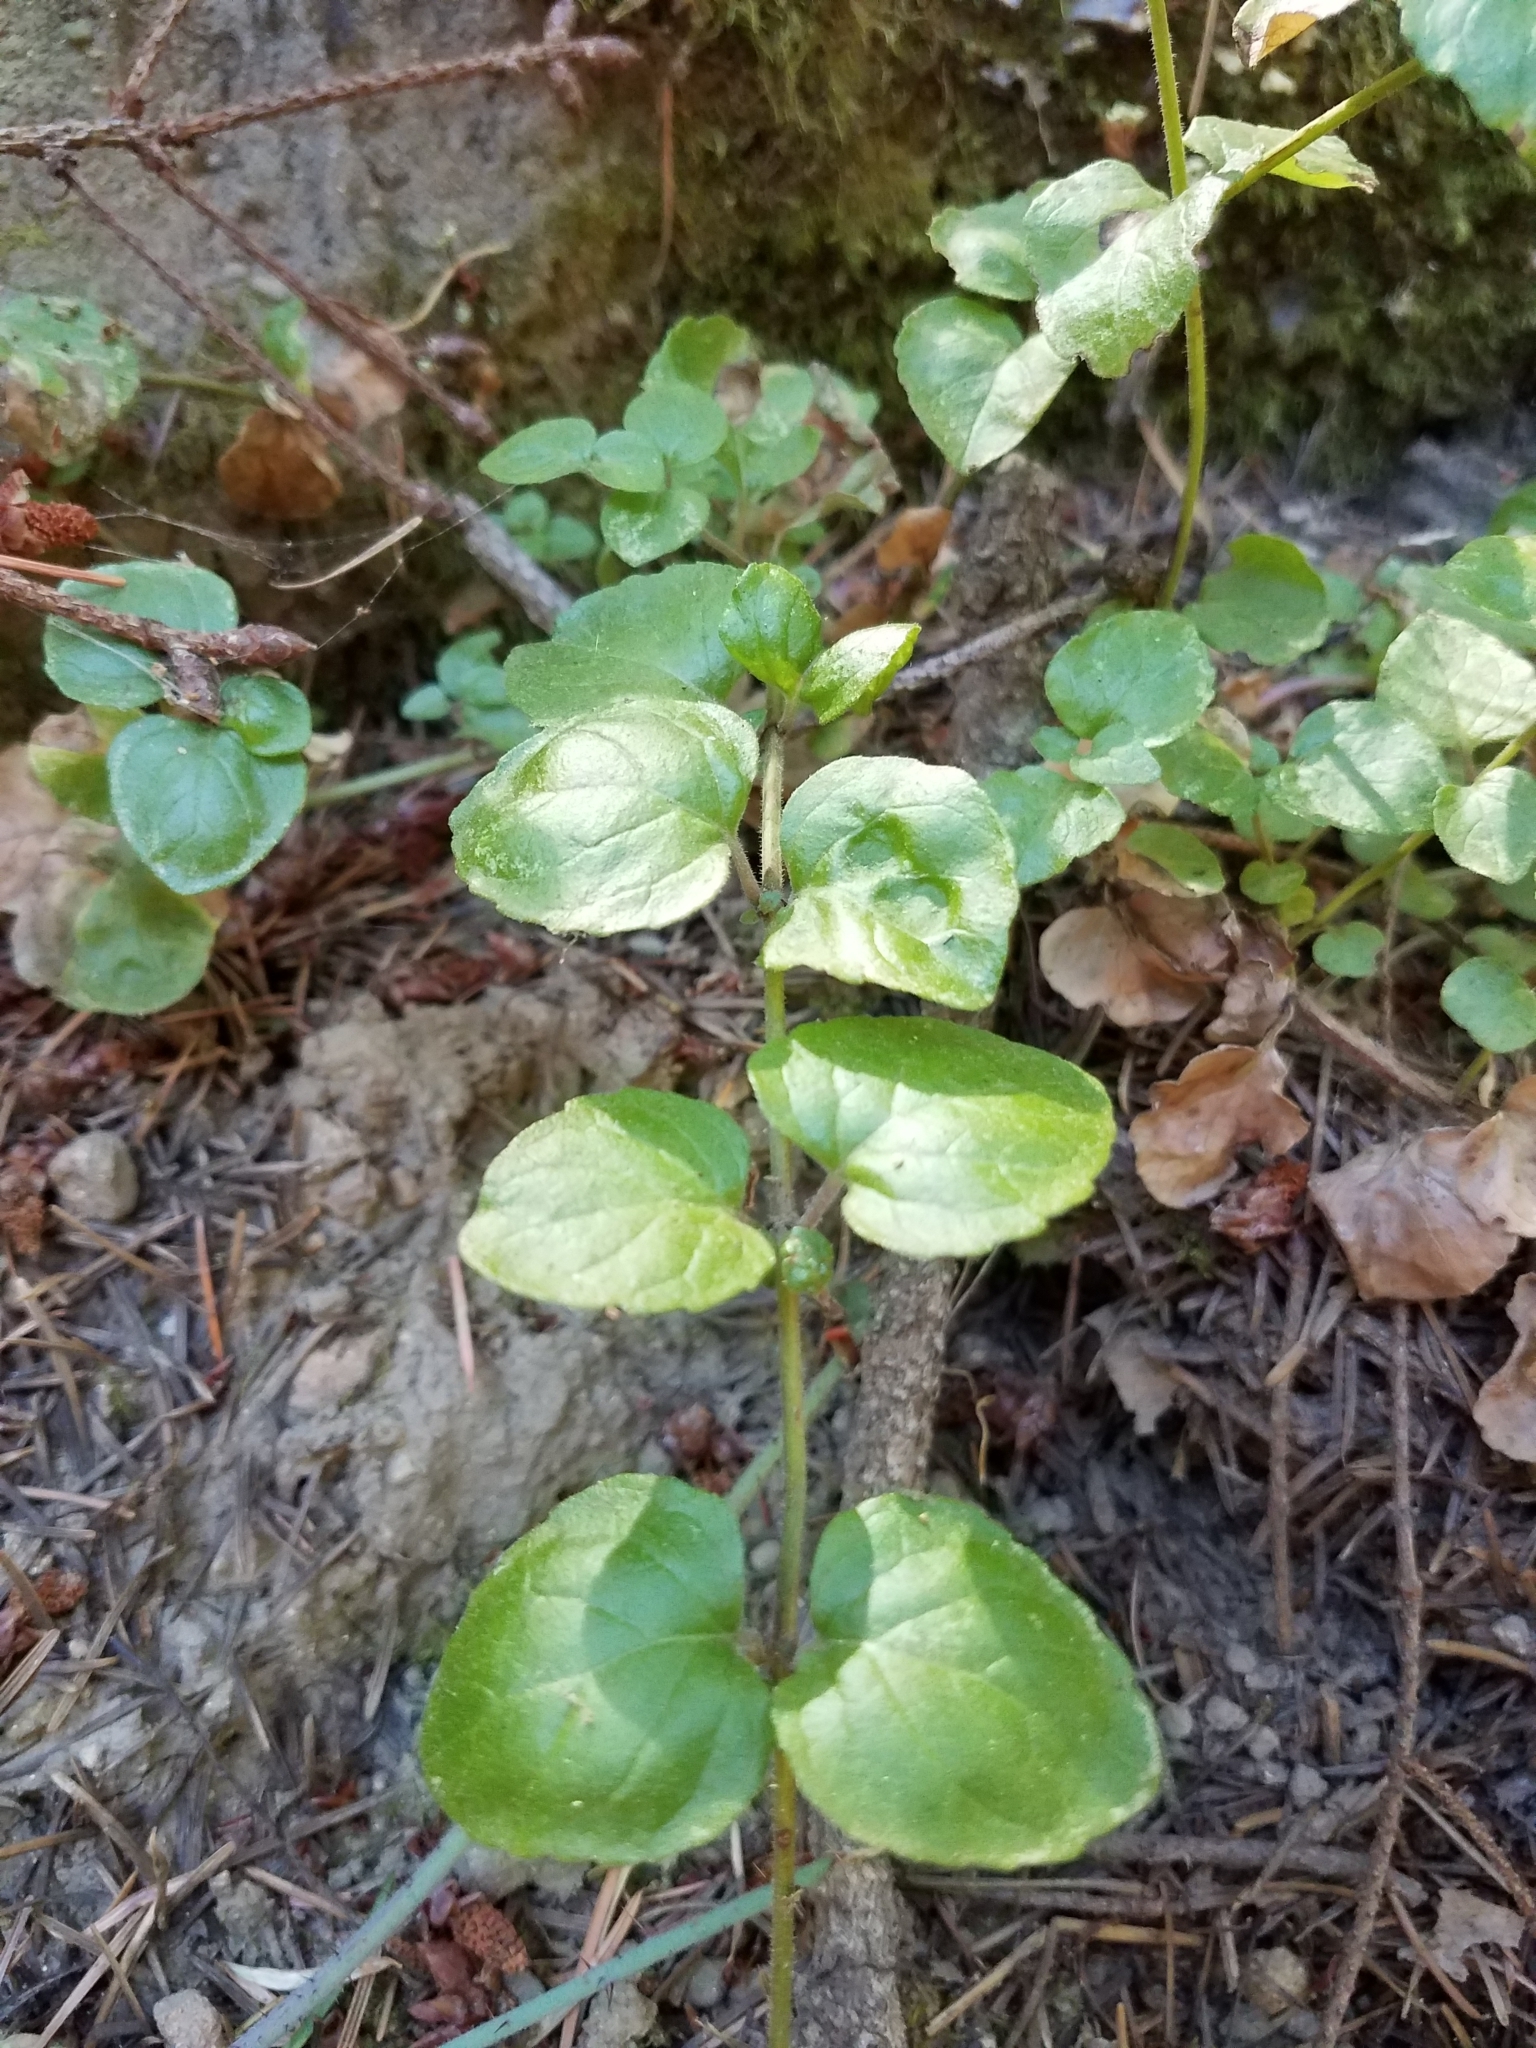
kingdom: Plantae
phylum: Tracheophyta
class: Magnoliopsida
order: Lamiales
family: Lamiaceae
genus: Micromeria
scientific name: Micromeria douglasii
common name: Yerba buena
